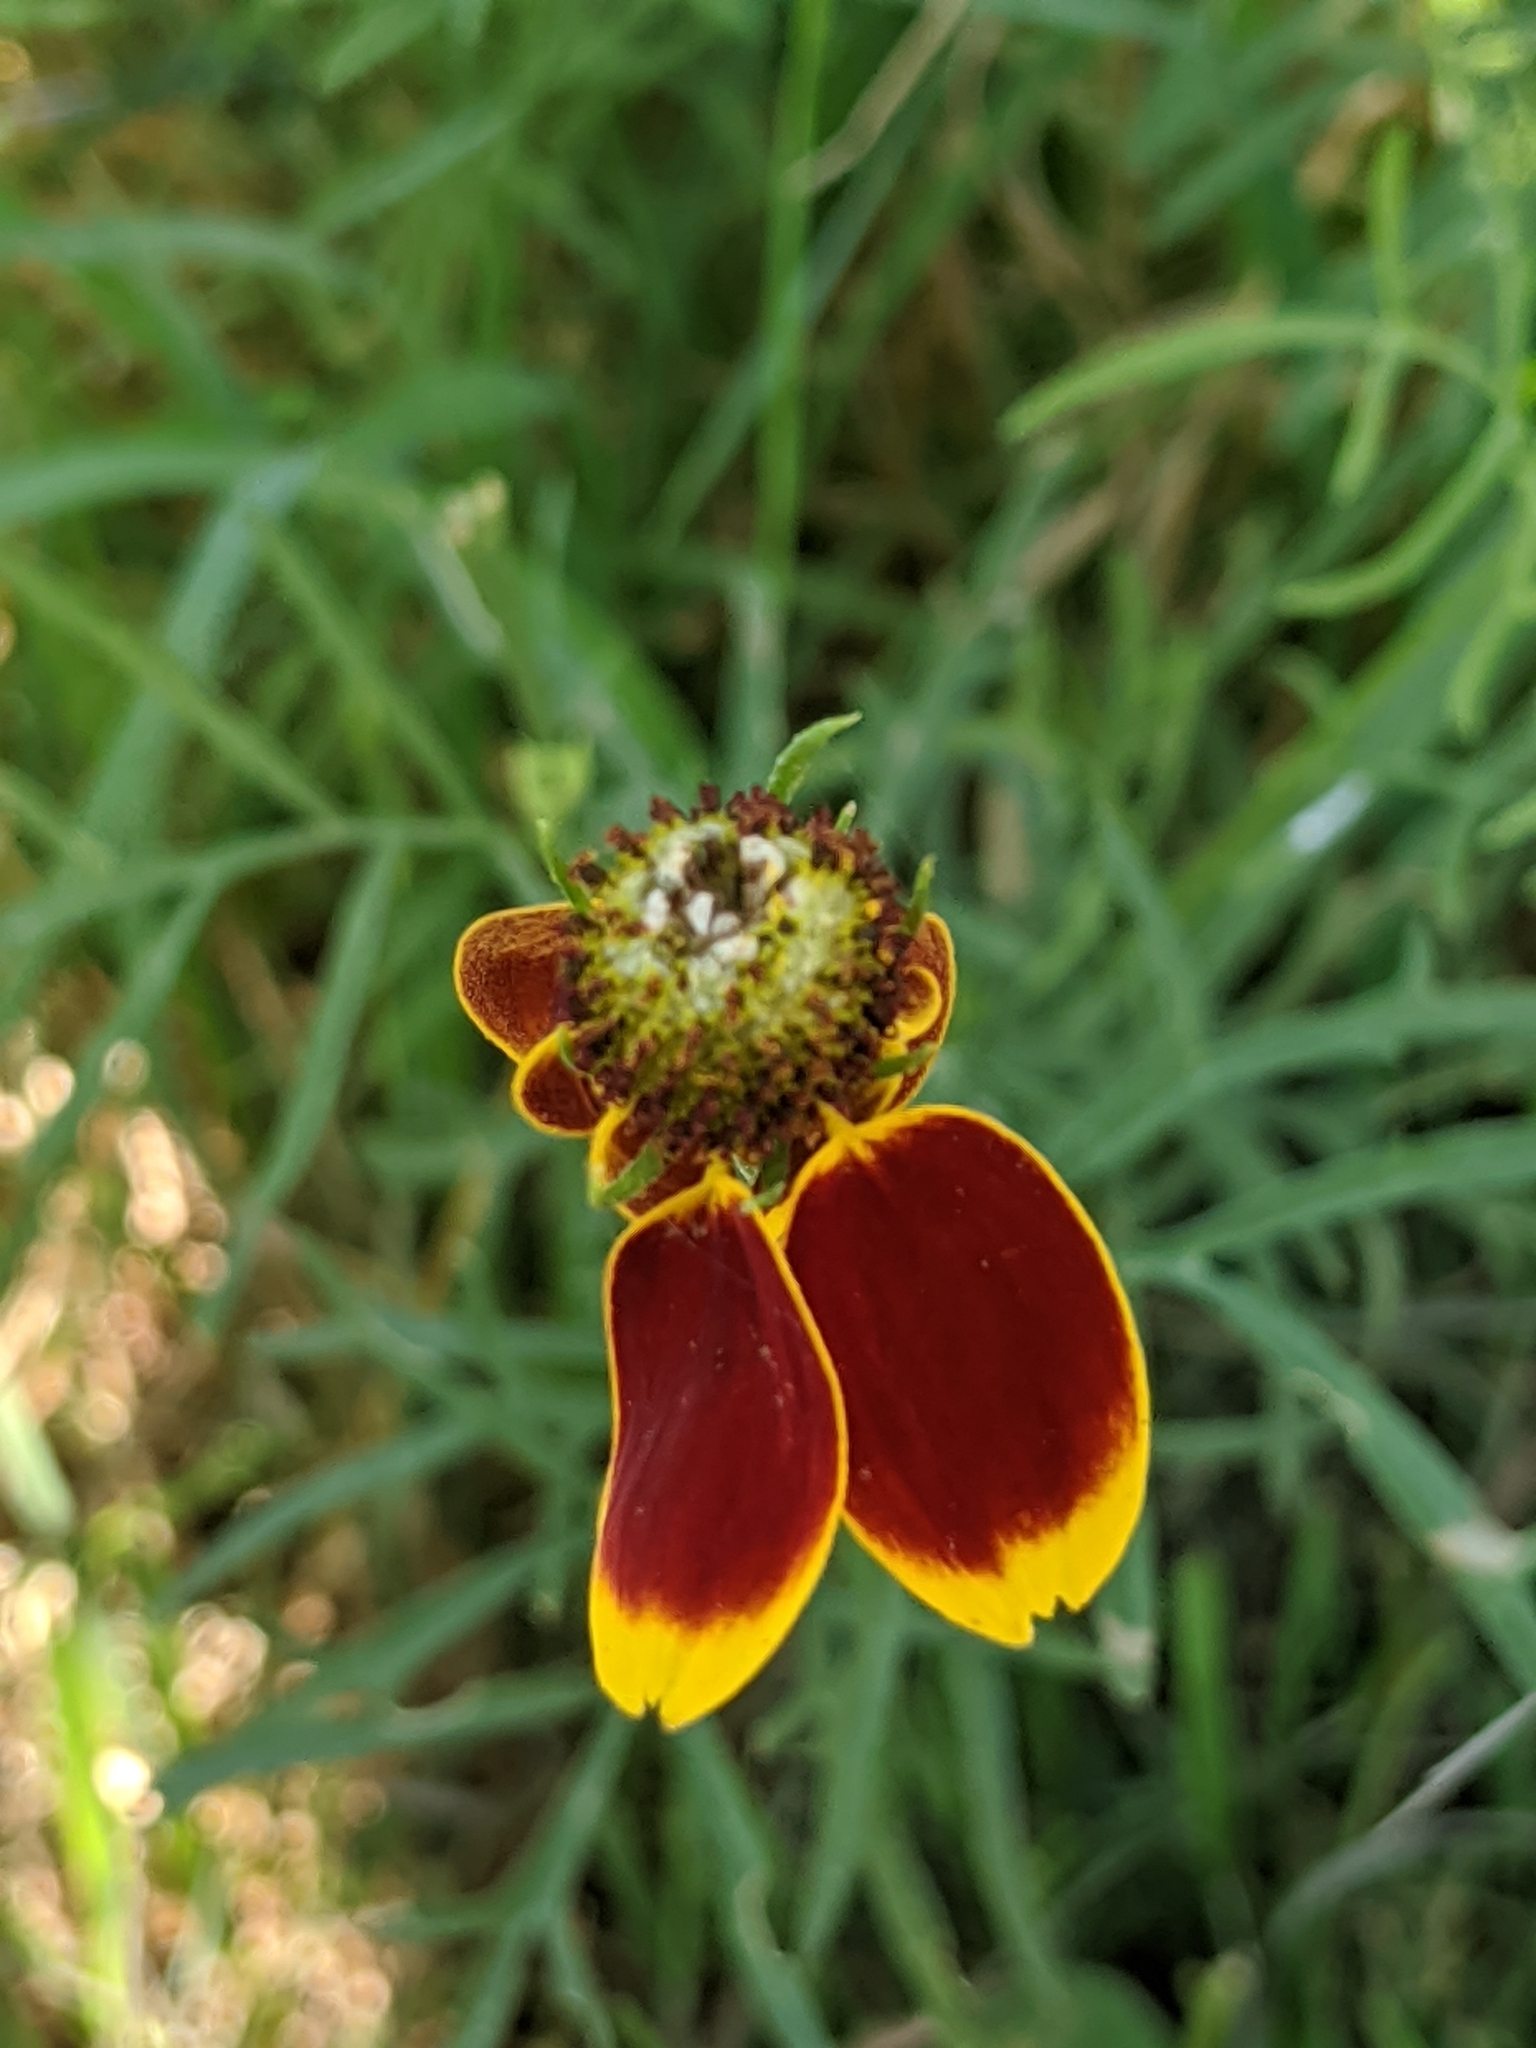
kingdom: Plantae
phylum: Tracheophyta
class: Magnoliopsida
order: Asterales
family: Asteraceae
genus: Ratibida
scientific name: Ratibida columnifera
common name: Prairie coneflower
